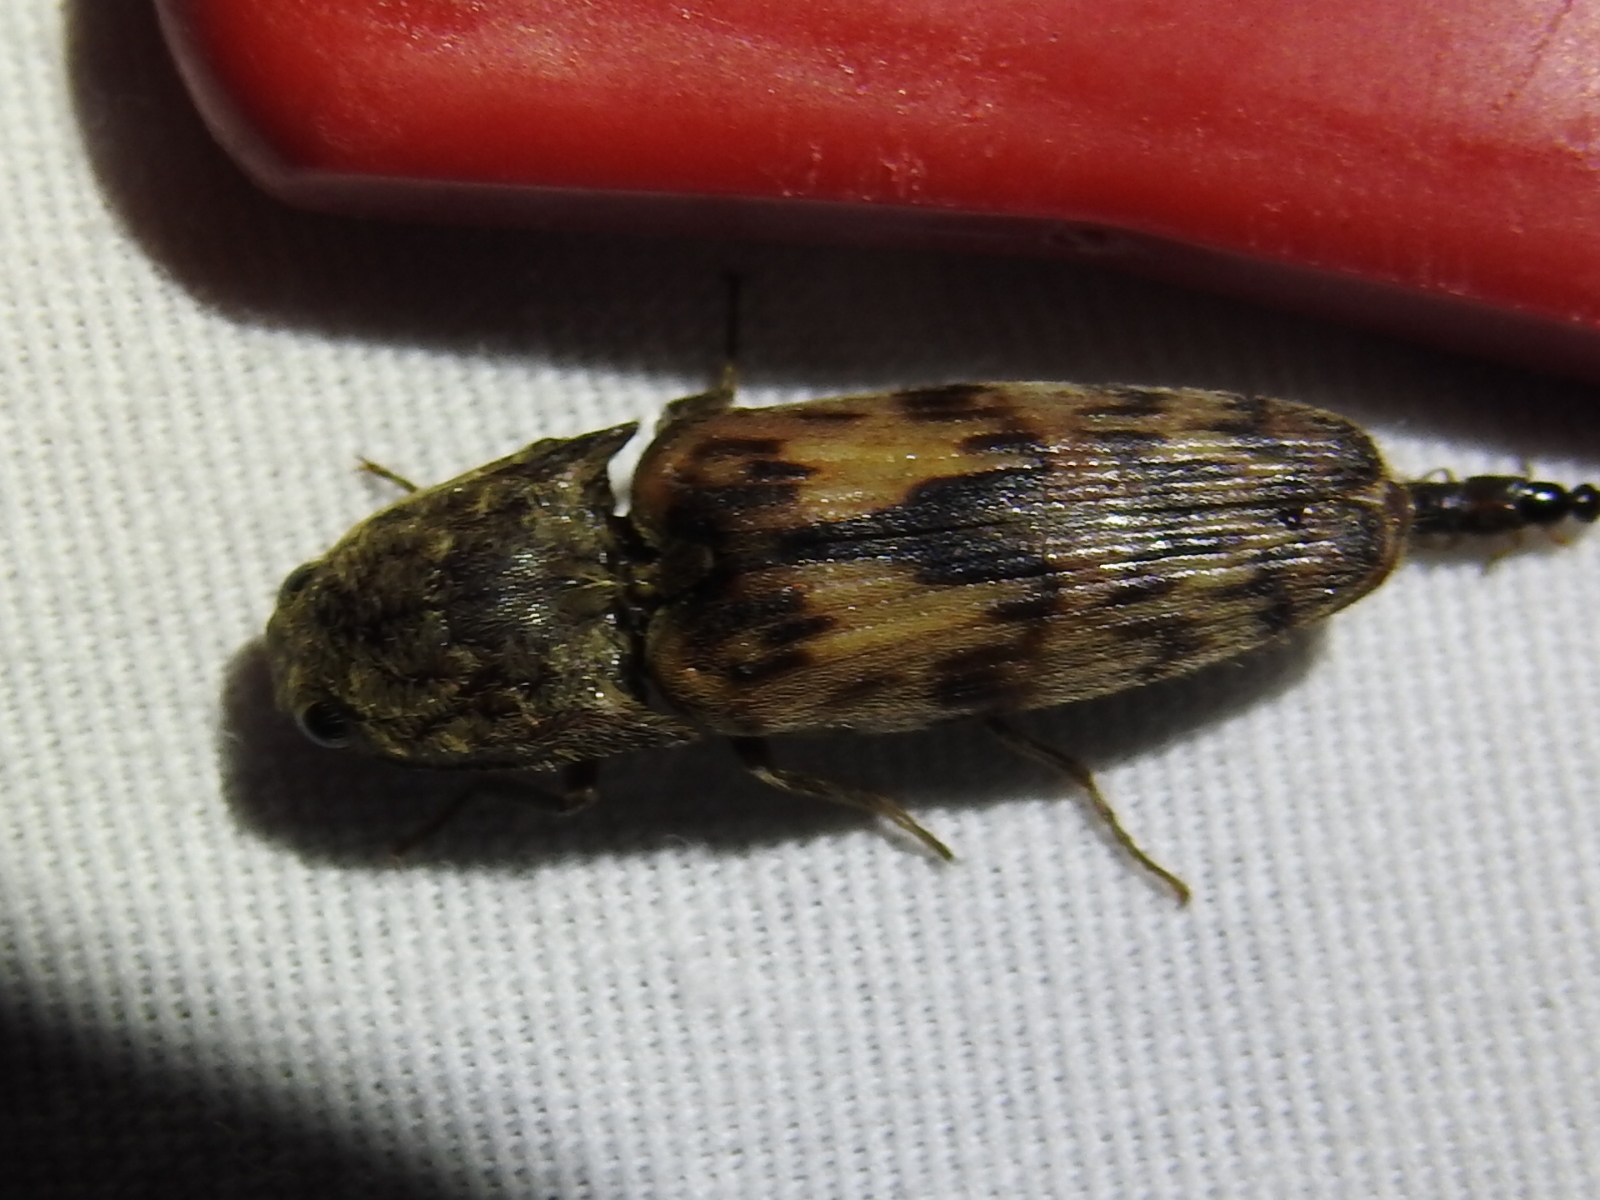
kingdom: Animalia
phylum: Arthropoda
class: Insecta
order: Coleoptera
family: Elateridae
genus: Pherhimius
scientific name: Pherhimius fascicularis
